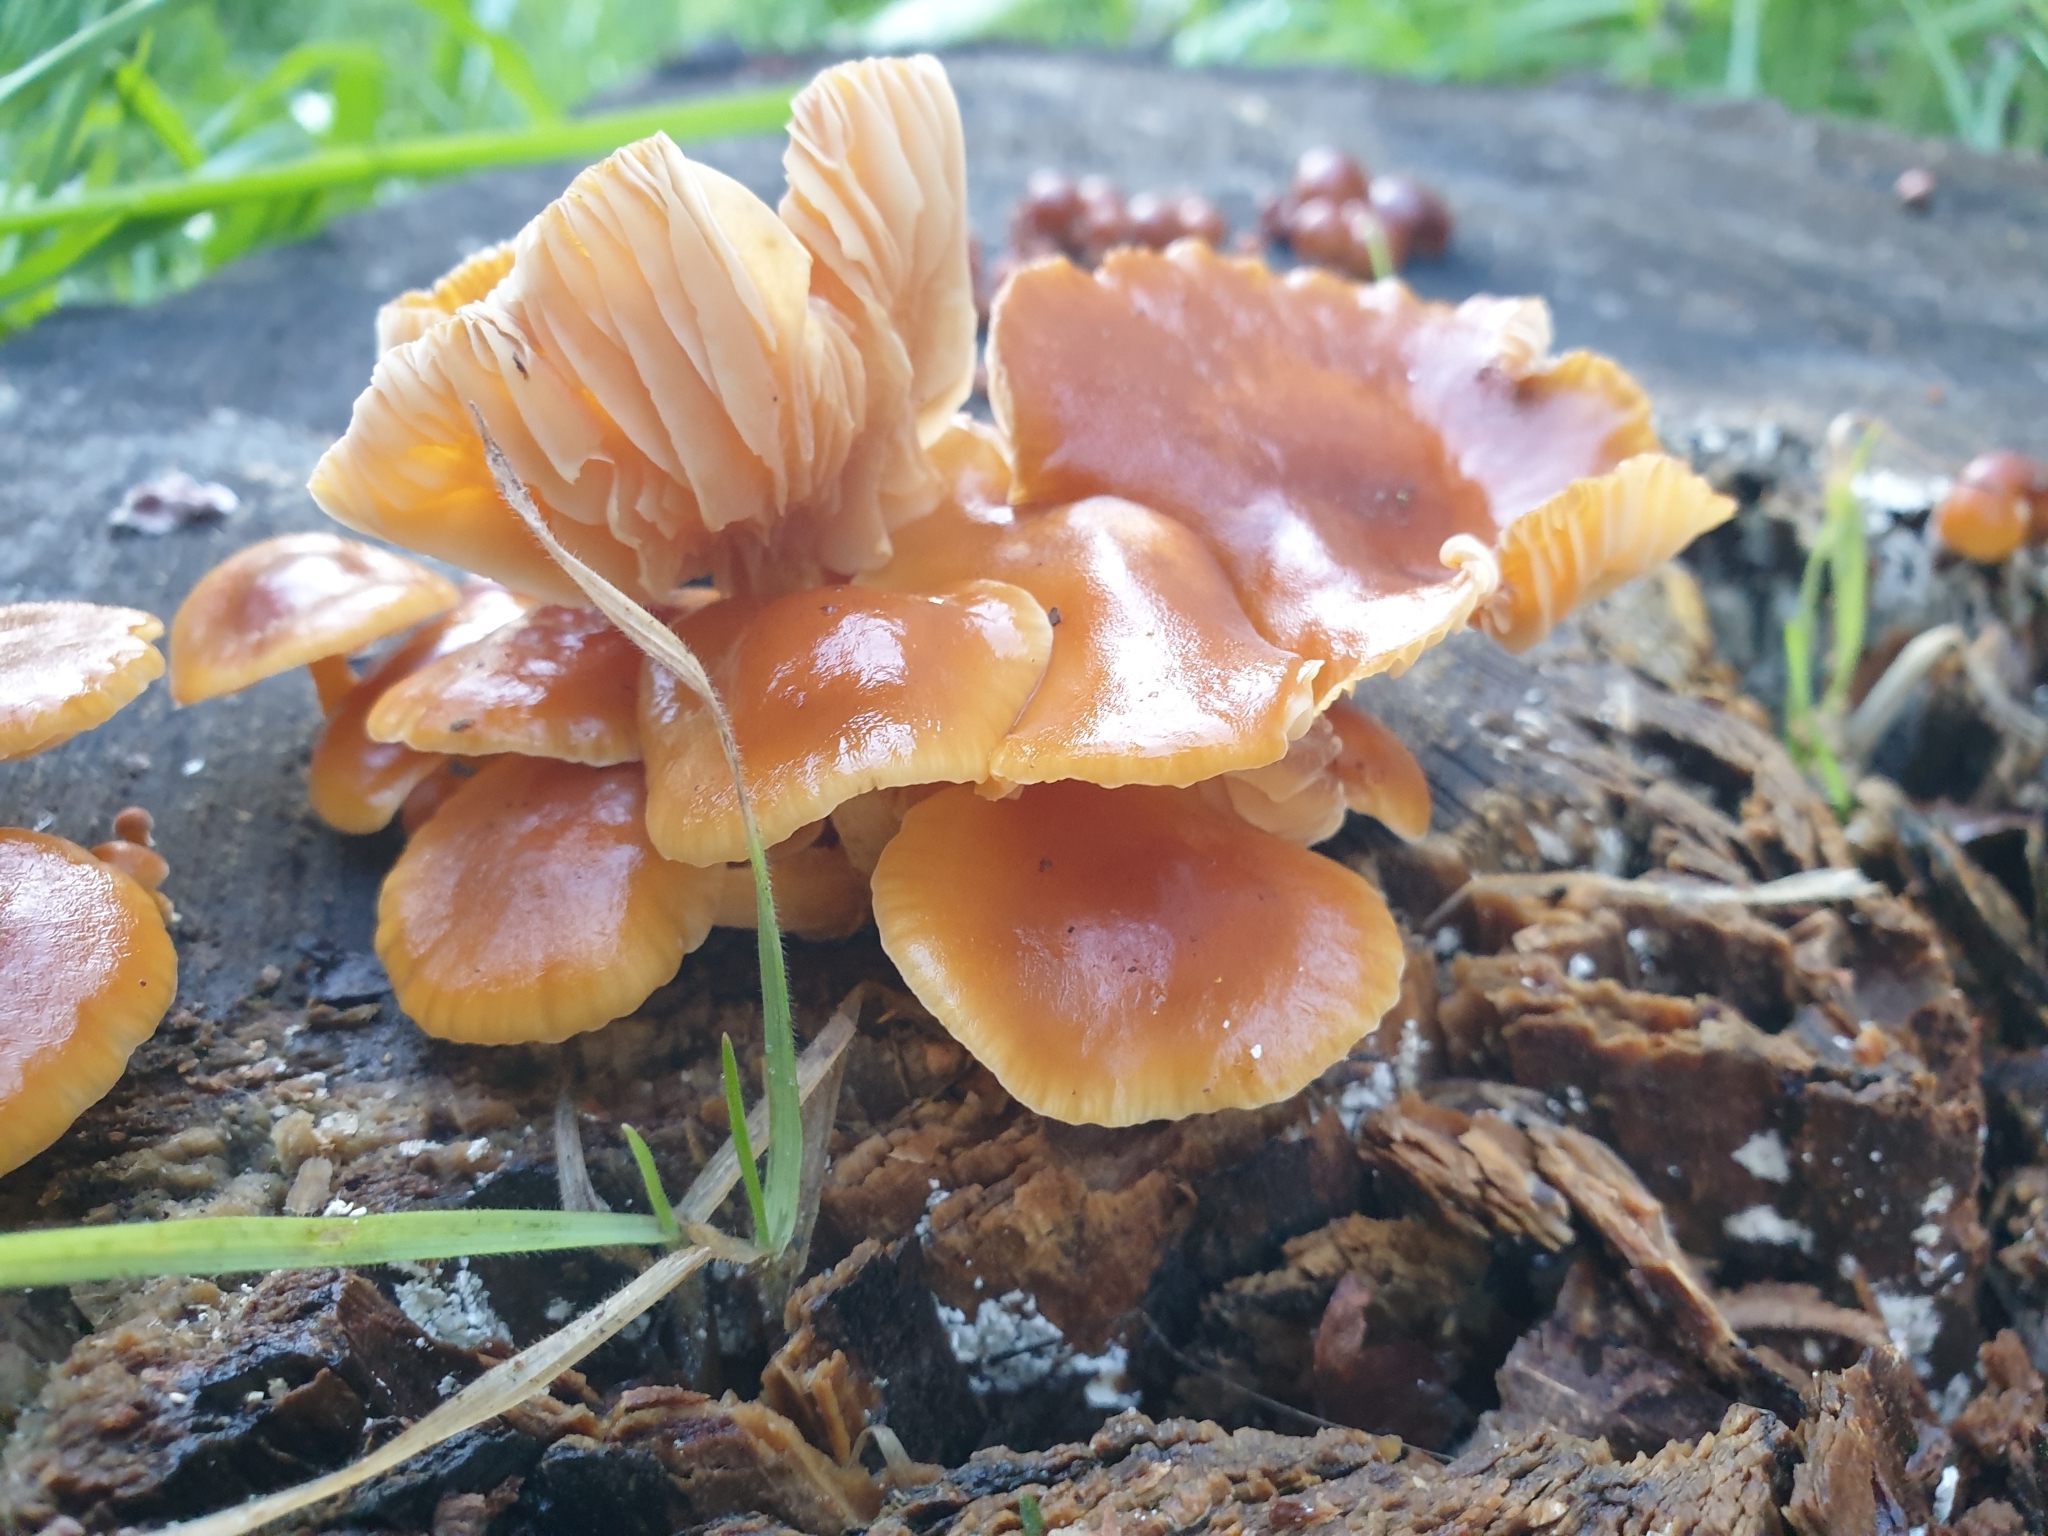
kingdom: Fungi
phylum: Basidiomycota
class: Agaricomycetes
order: Agaricales
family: Physalacriaceae
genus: Flammulina
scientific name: Flammulina
